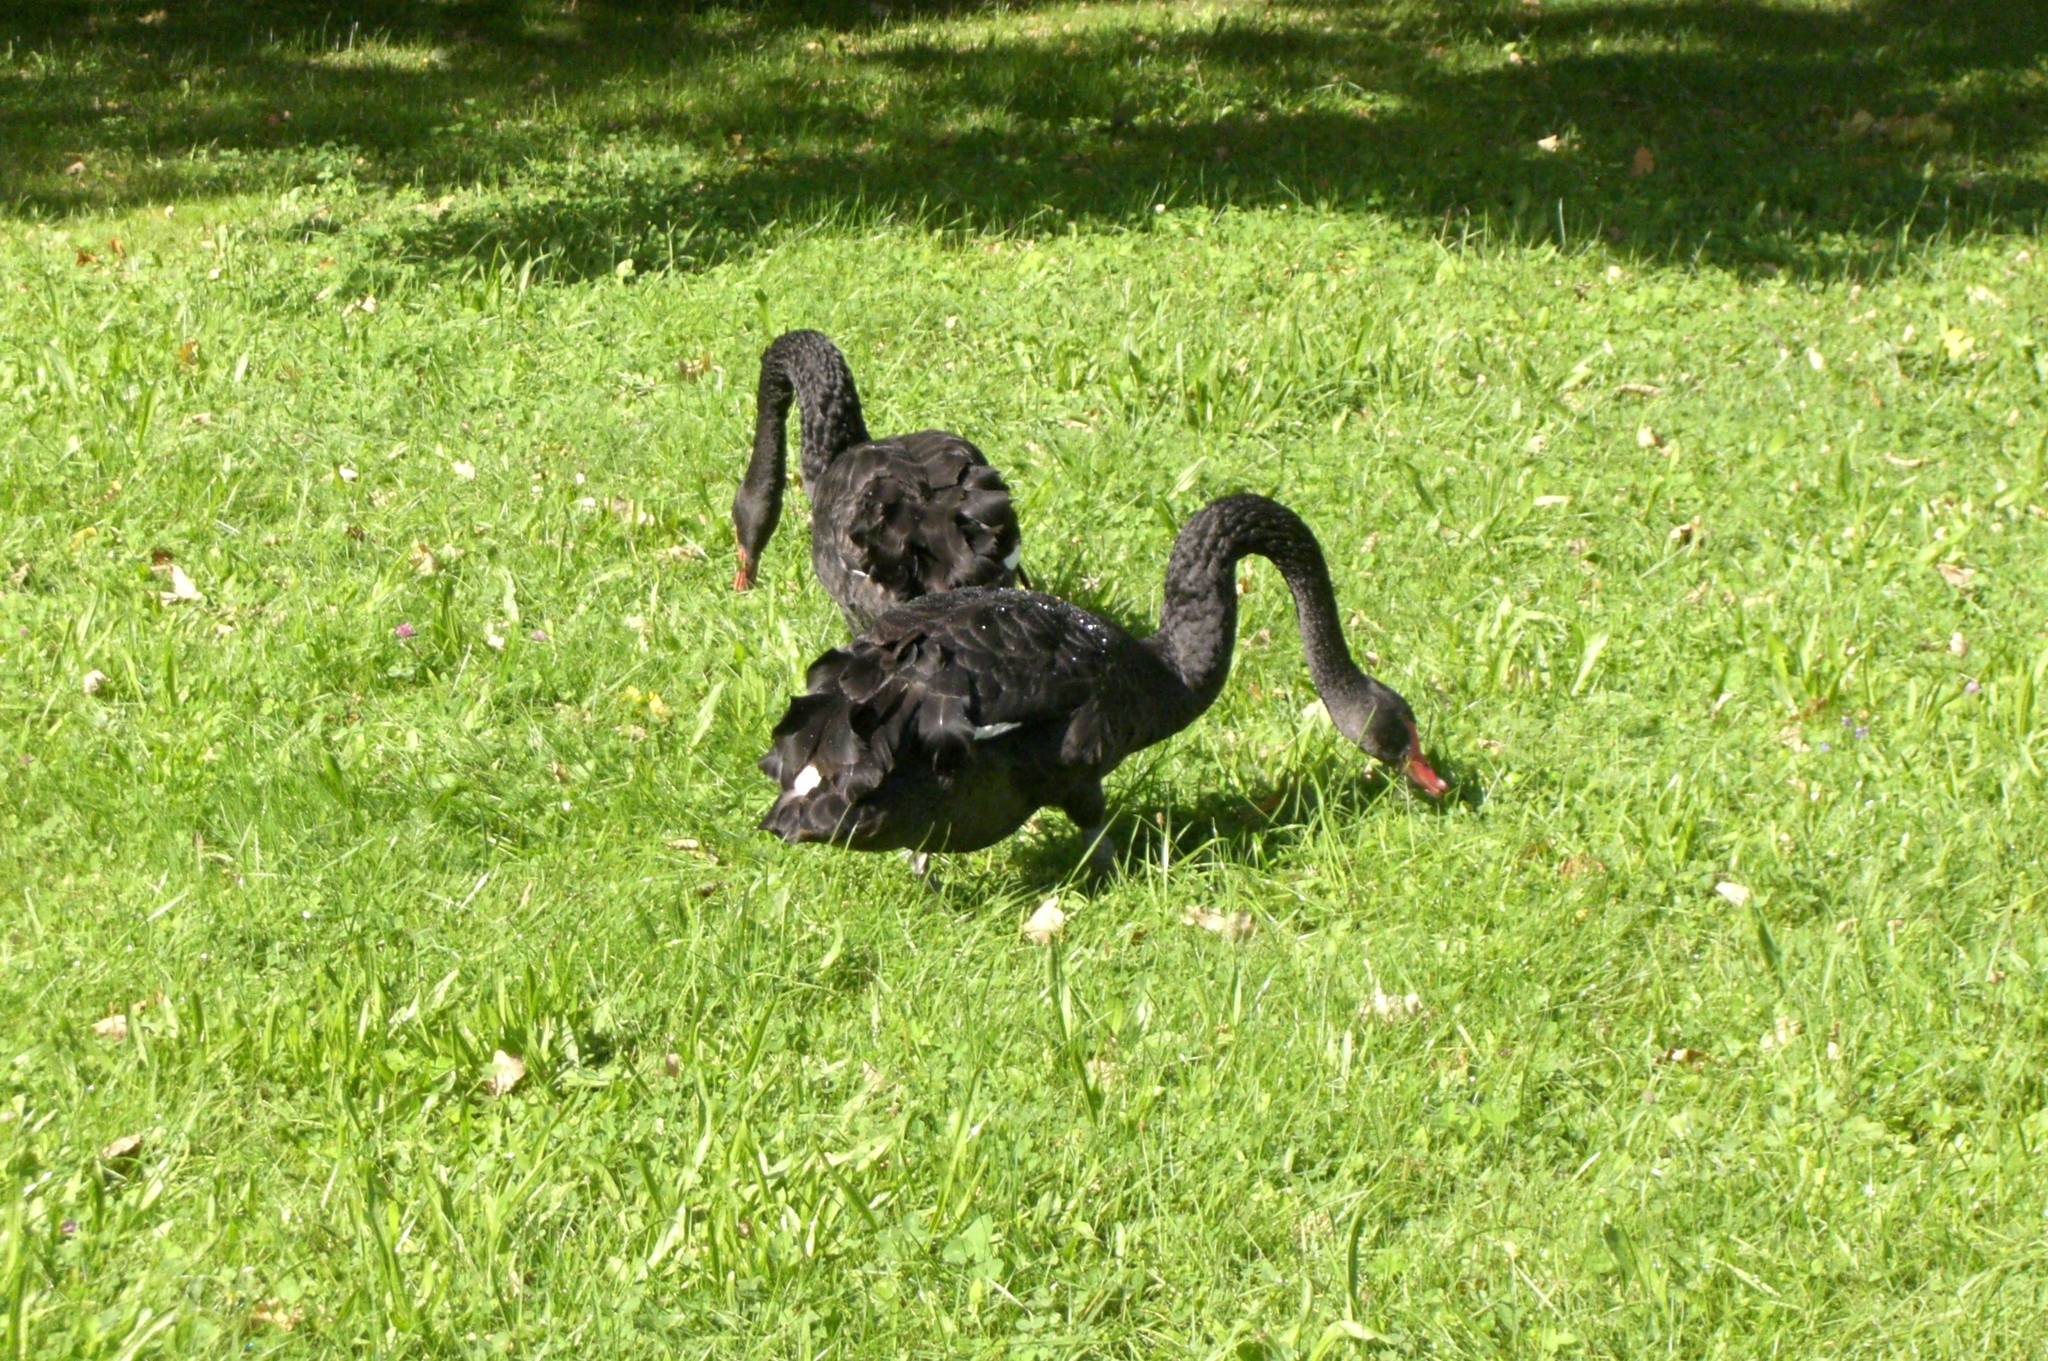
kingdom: Animalia
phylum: Chordata
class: Aves
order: Anseriformes
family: Anatidae
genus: Cygnus
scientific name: Cygnus atratus
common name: Black swan
